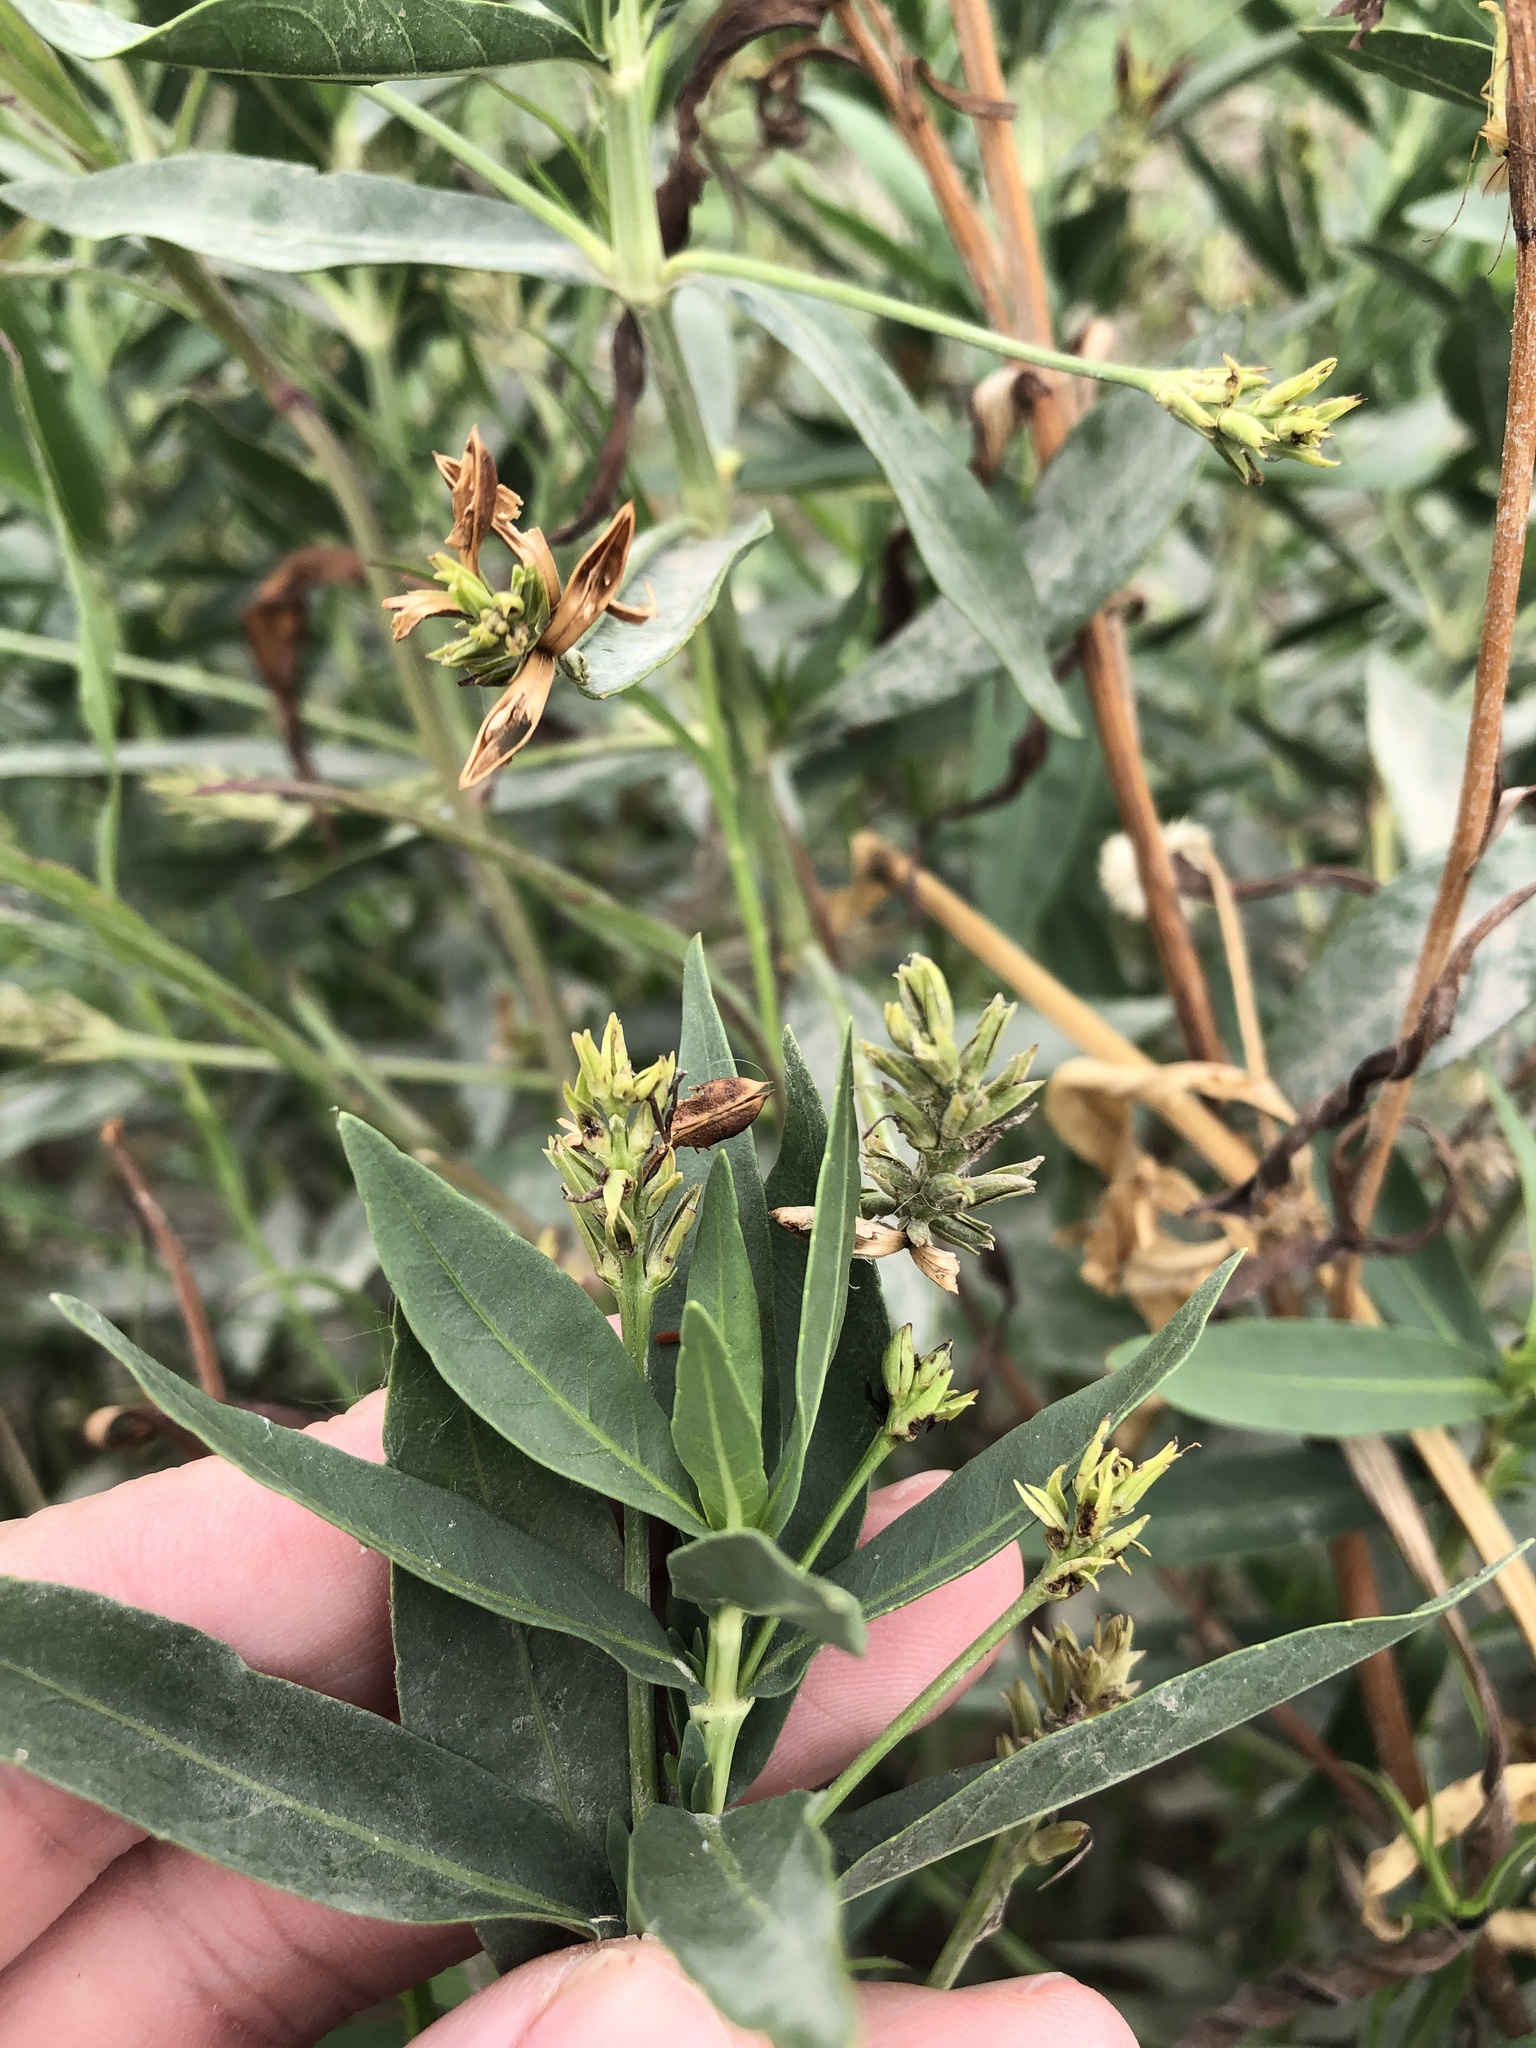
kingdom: Plantae
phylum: Tracheophyta
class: Magnoliopsida
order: Lamiales
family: Acanthaceae
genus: Dianthera
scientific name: Dianthera americana
